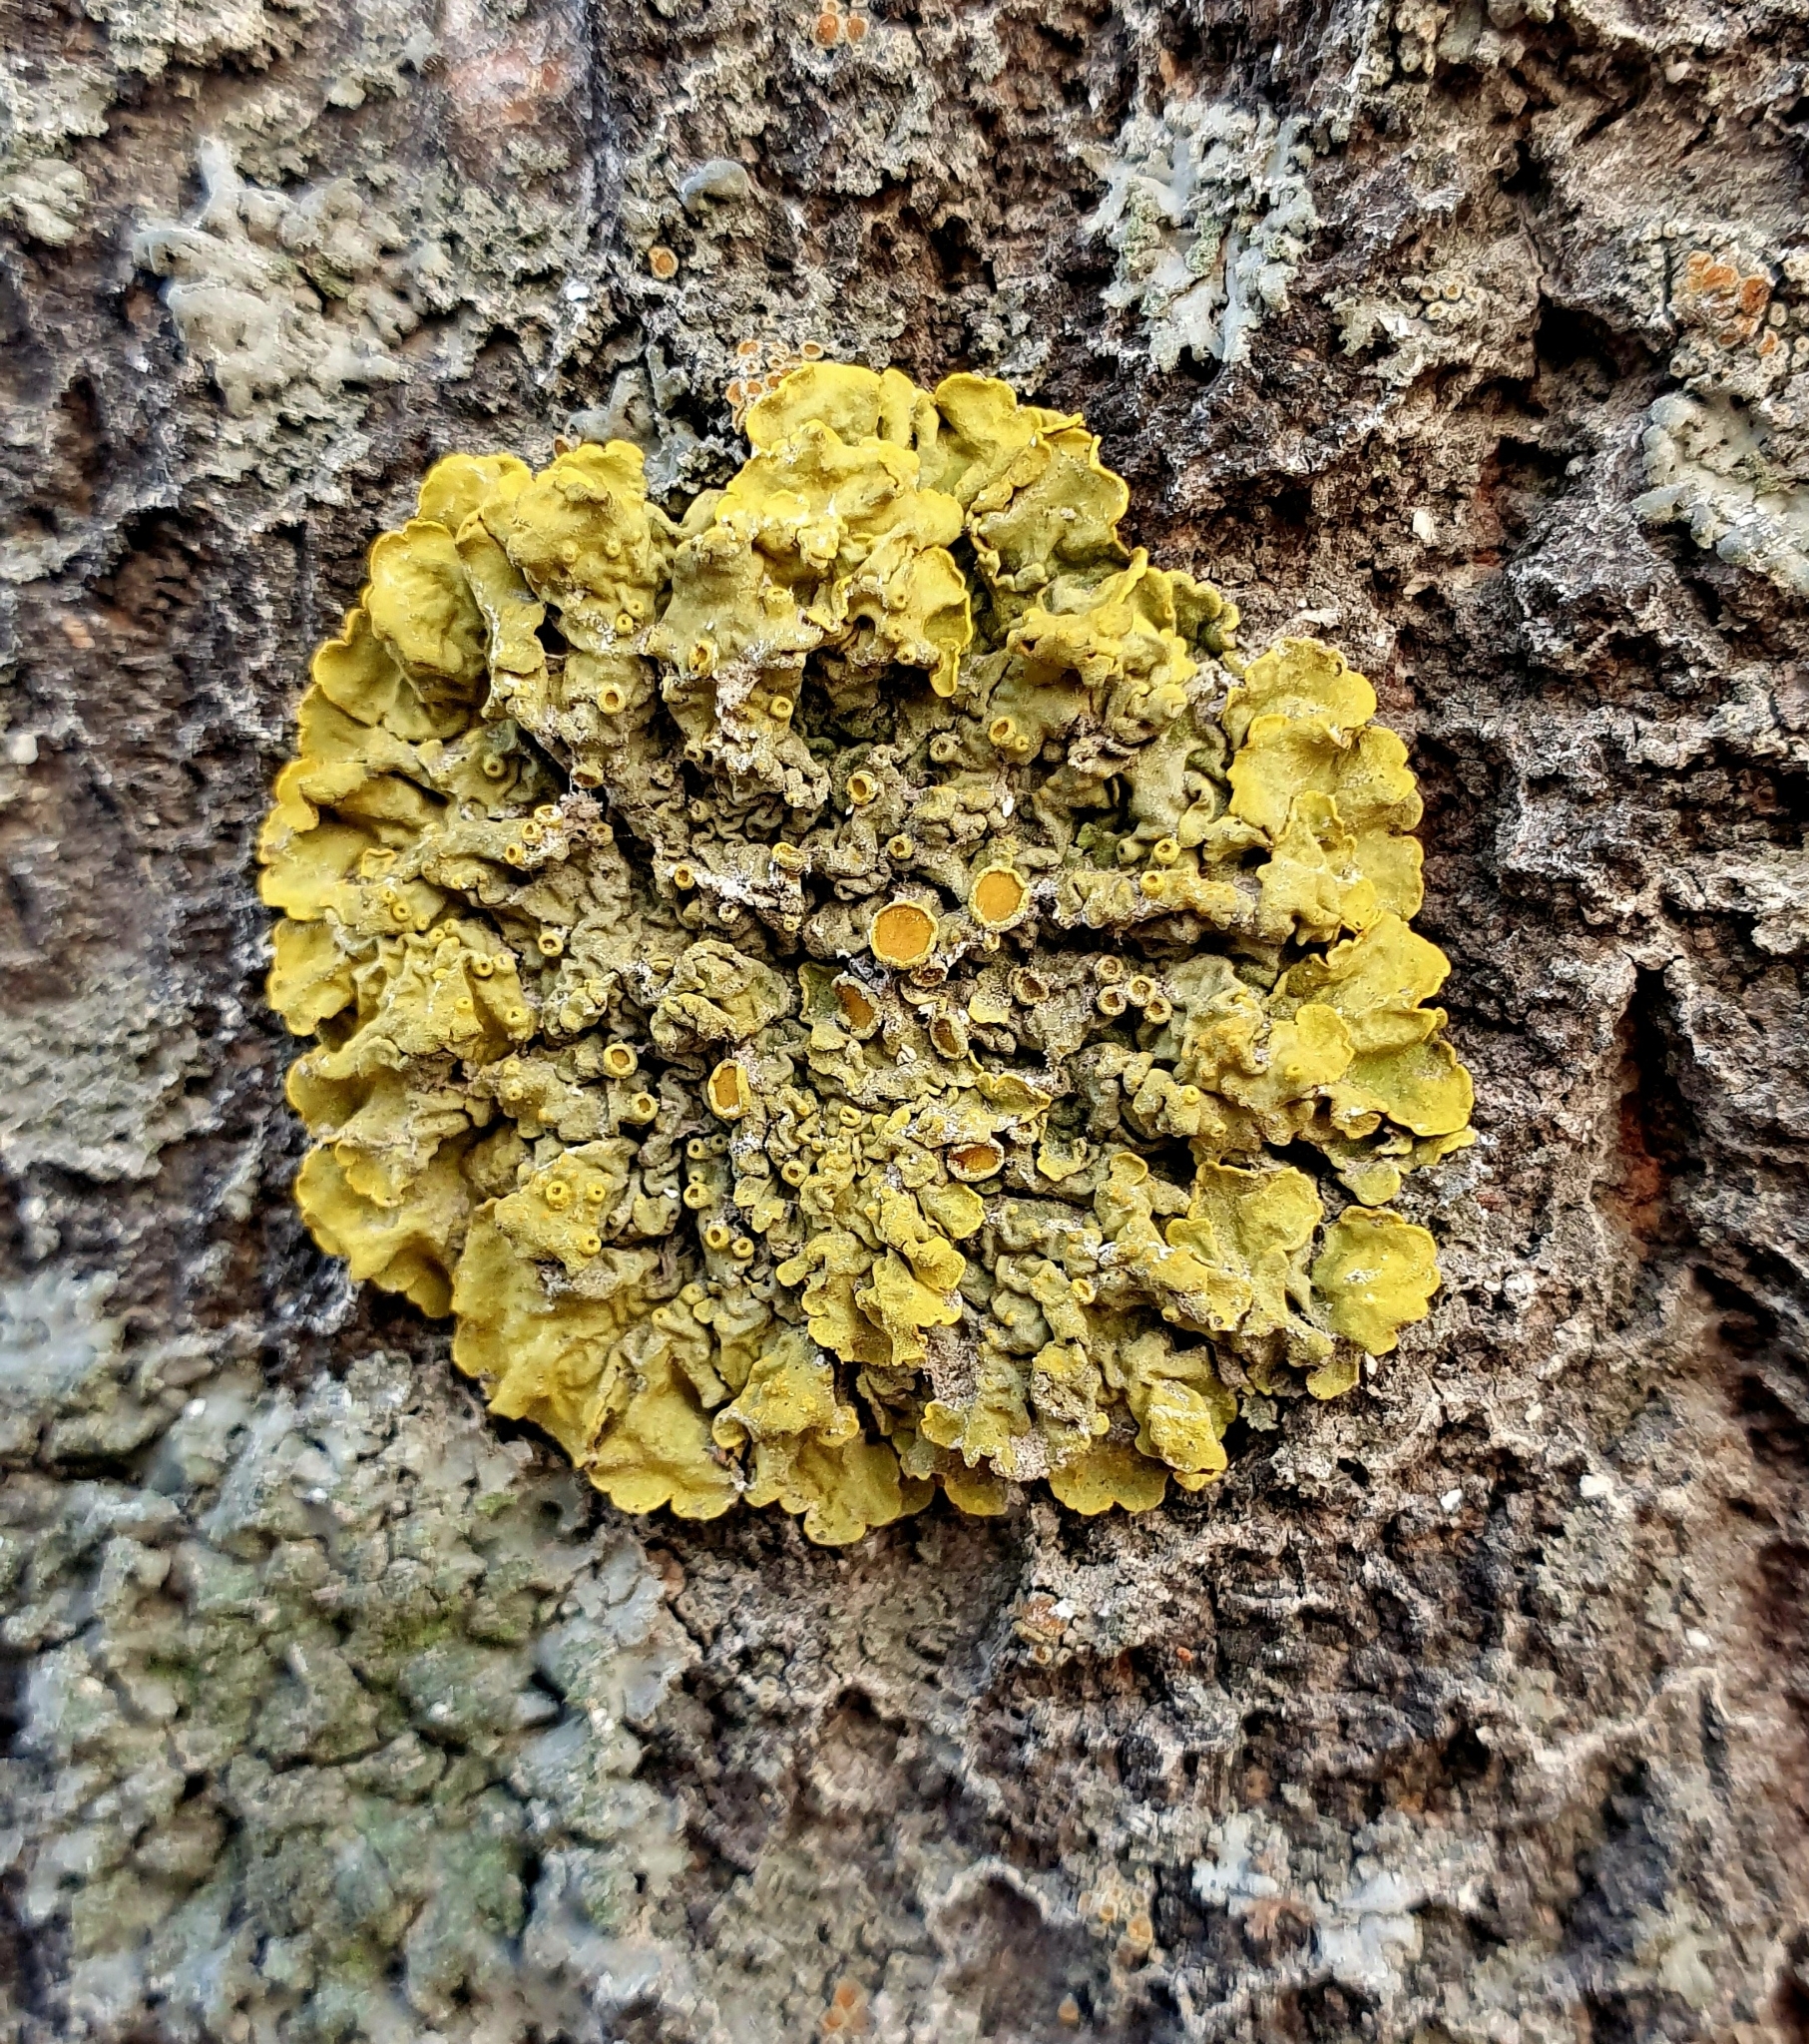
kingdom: Fungi
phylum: Ascomycota
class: Lecanoromycetes
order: Teloschistales
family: Teloschistaceae
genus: Xanthoria
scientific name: Xanthoria parietina
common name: Common orange lichen
